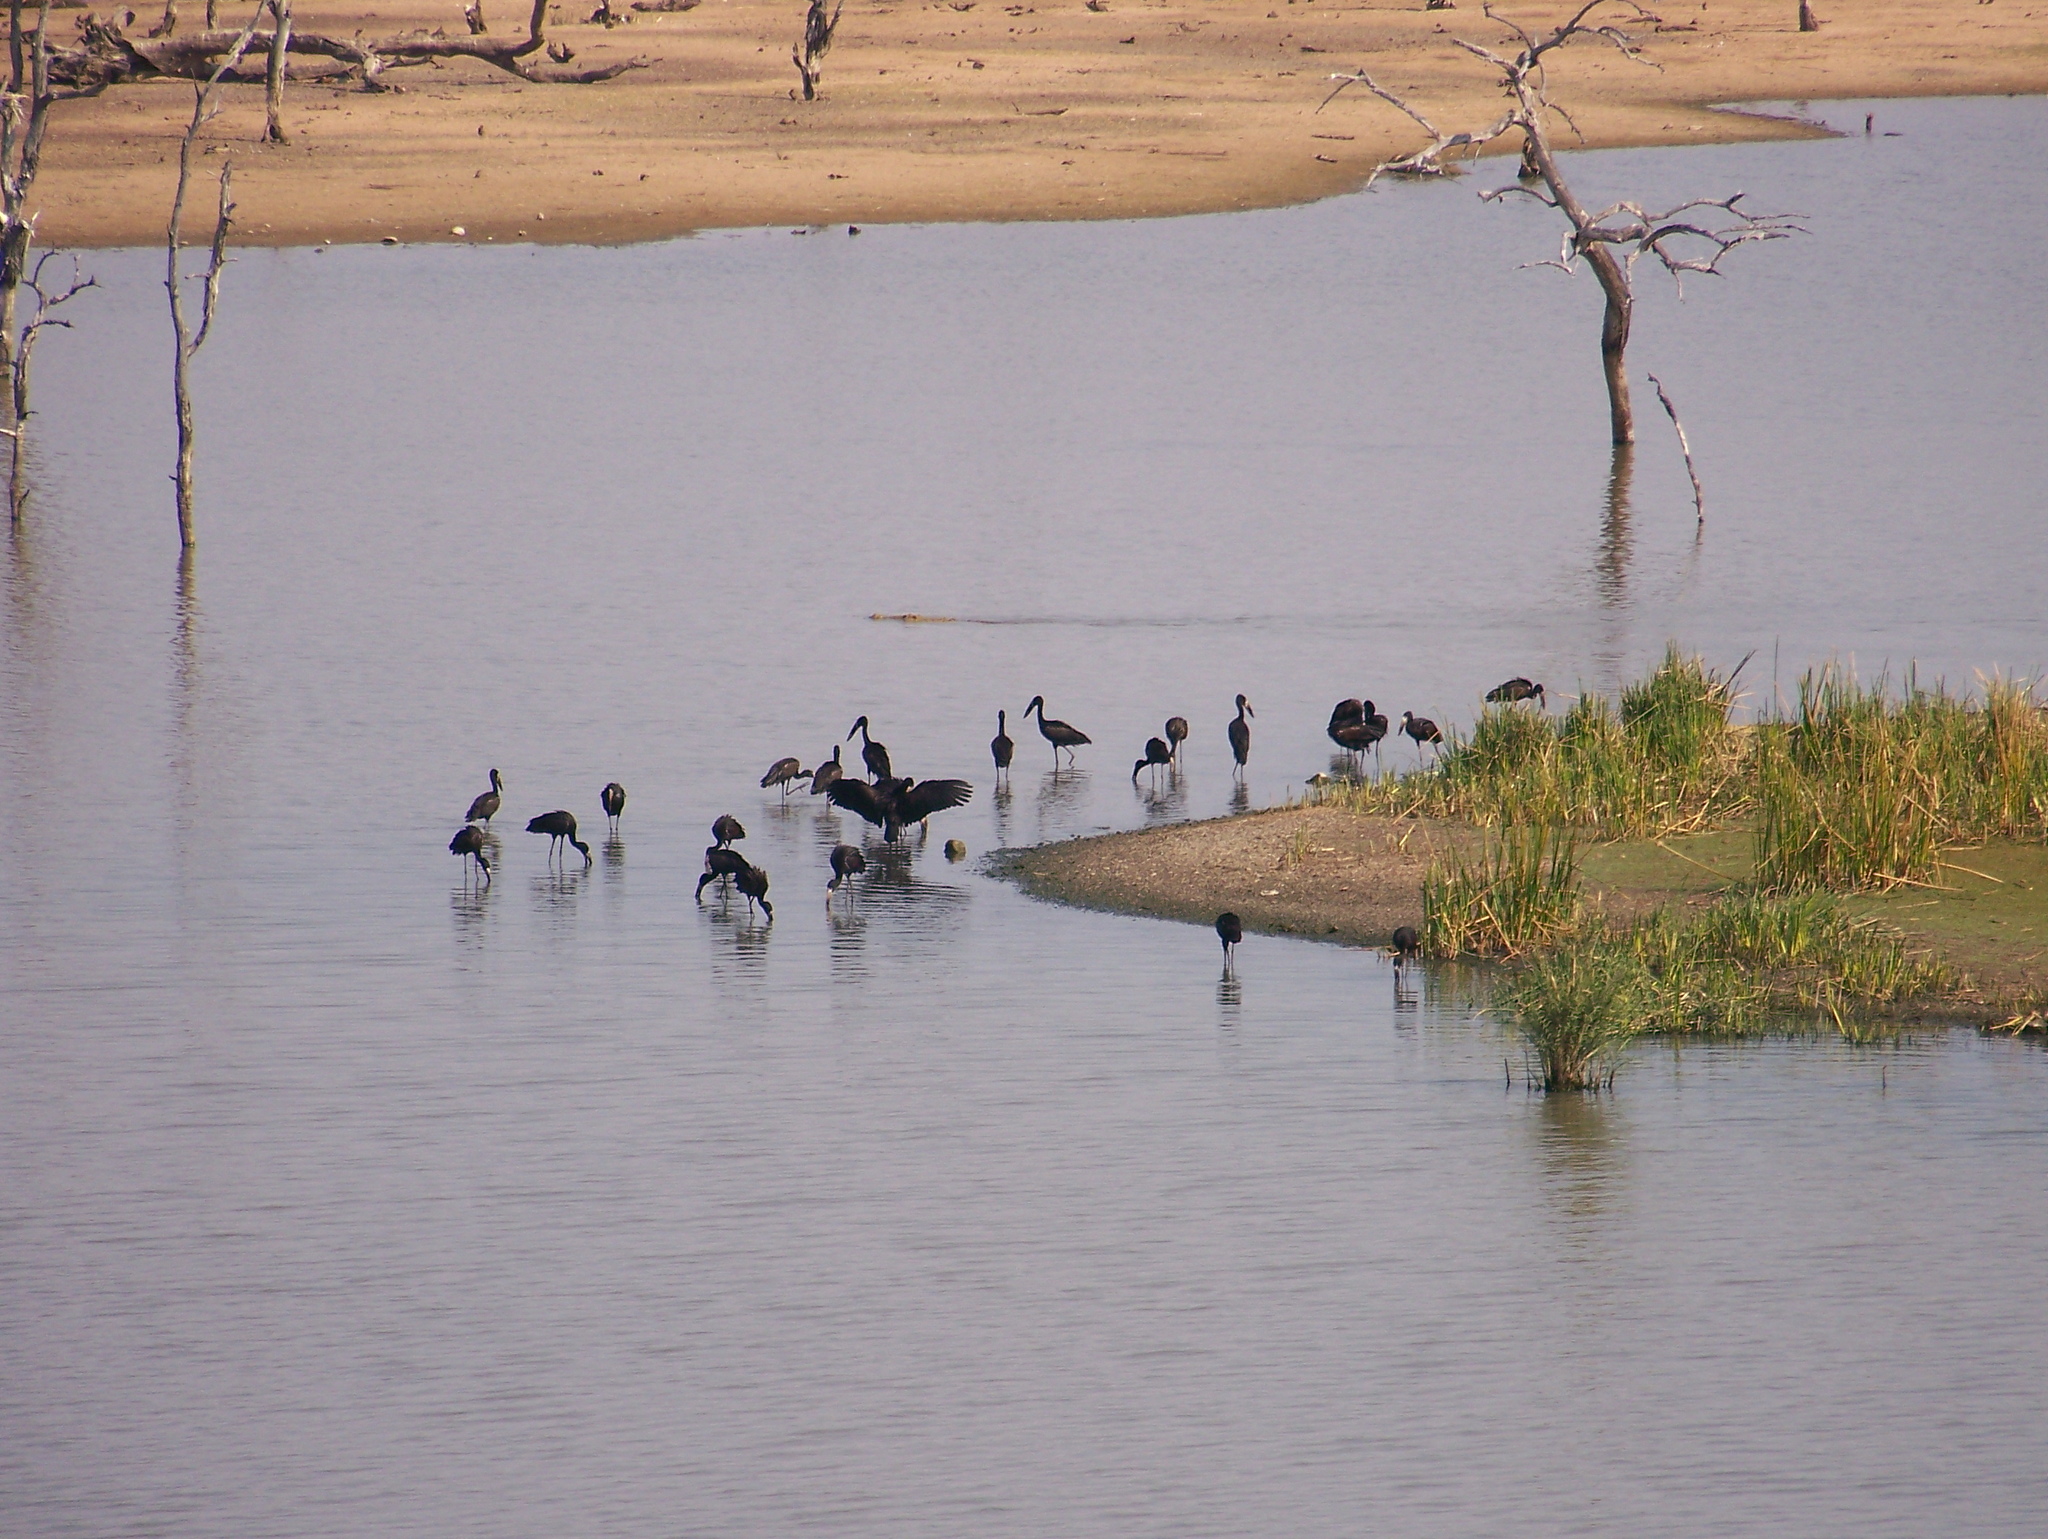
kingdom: Animalia
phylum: Chordata
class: Aves
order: Ciconiiformes
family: Ciconiidae
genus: Anastomus
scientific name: Anastomus lamelligerus
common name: African openbill
